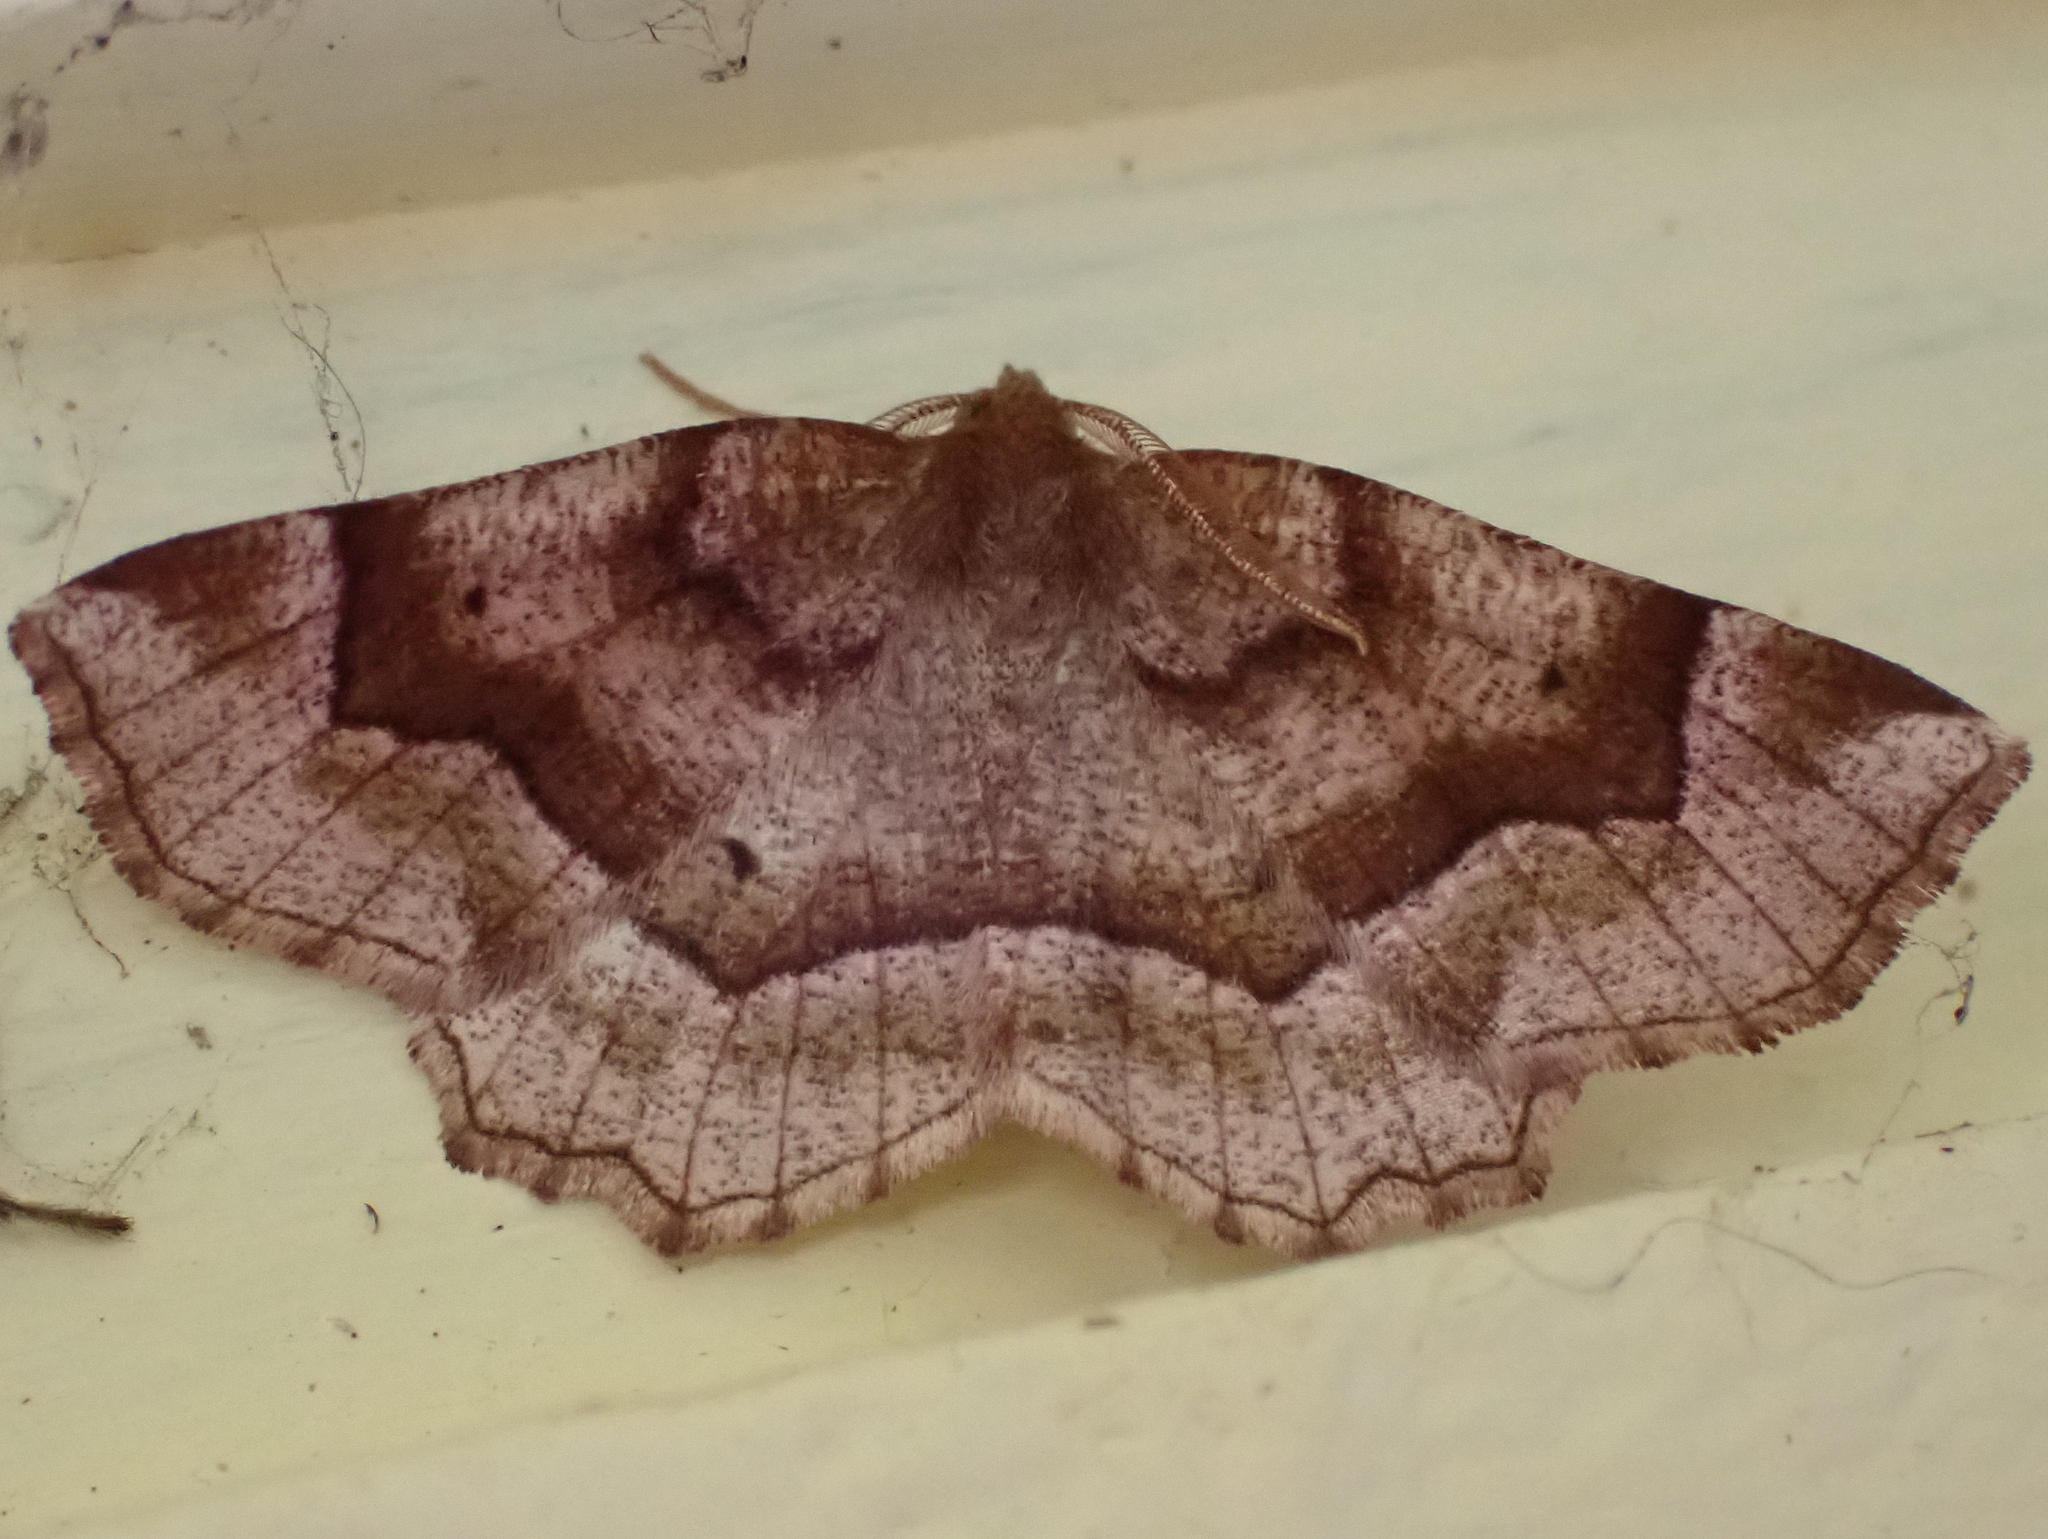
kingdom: Animalia
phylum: Arthropoda
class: Insecta
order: Lepidoptera
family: Geometridae
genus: Metarranthis
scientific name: Metarranthis refractaria
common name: Refracted metarranthis moth
